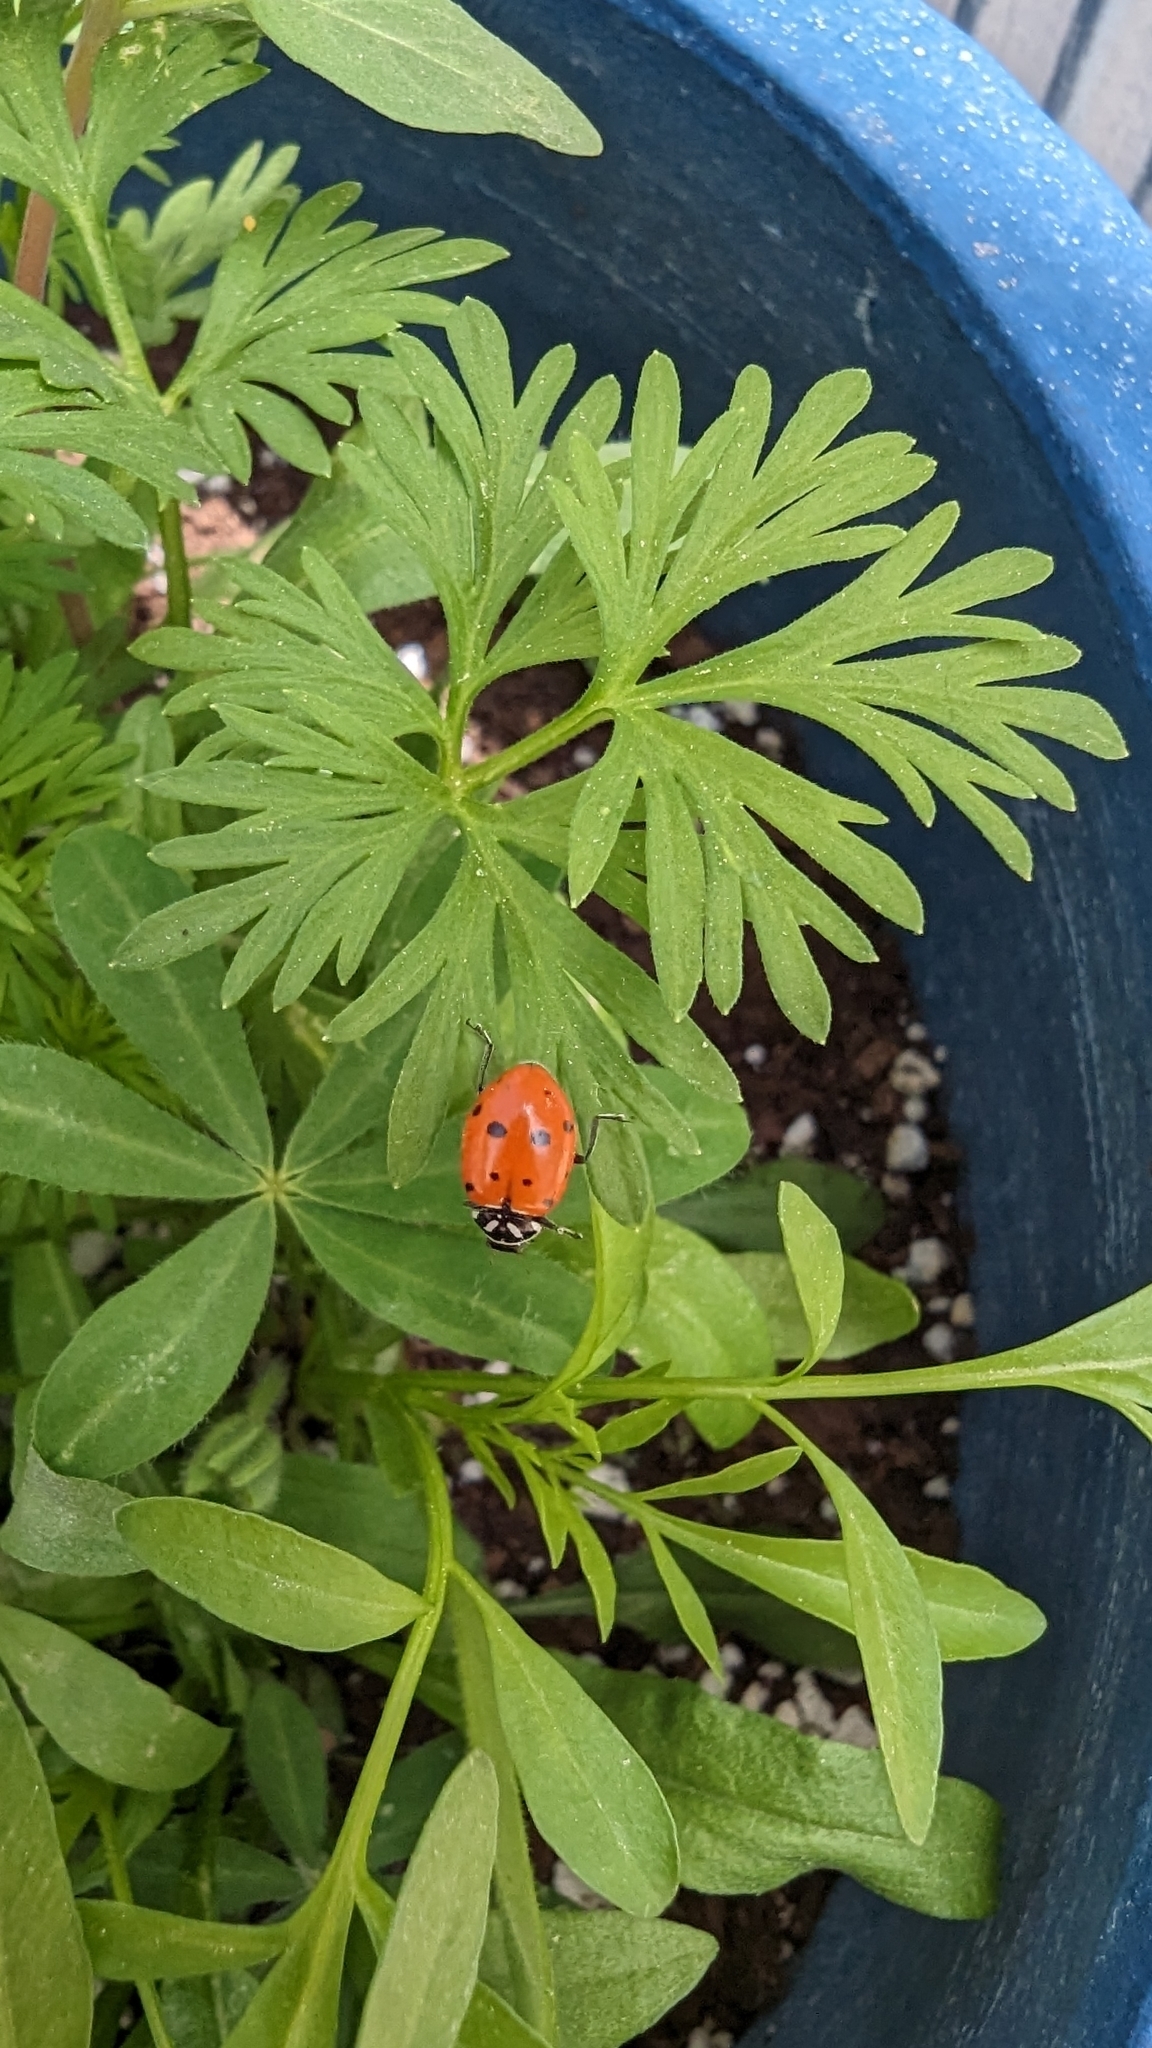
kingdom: Animalia
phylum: Arthropoda
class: Insecta
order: Coleoptera
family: Coccinellidae
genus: Hippodamia
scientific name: Hippodamia convergens
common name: Convergent lady beetle
